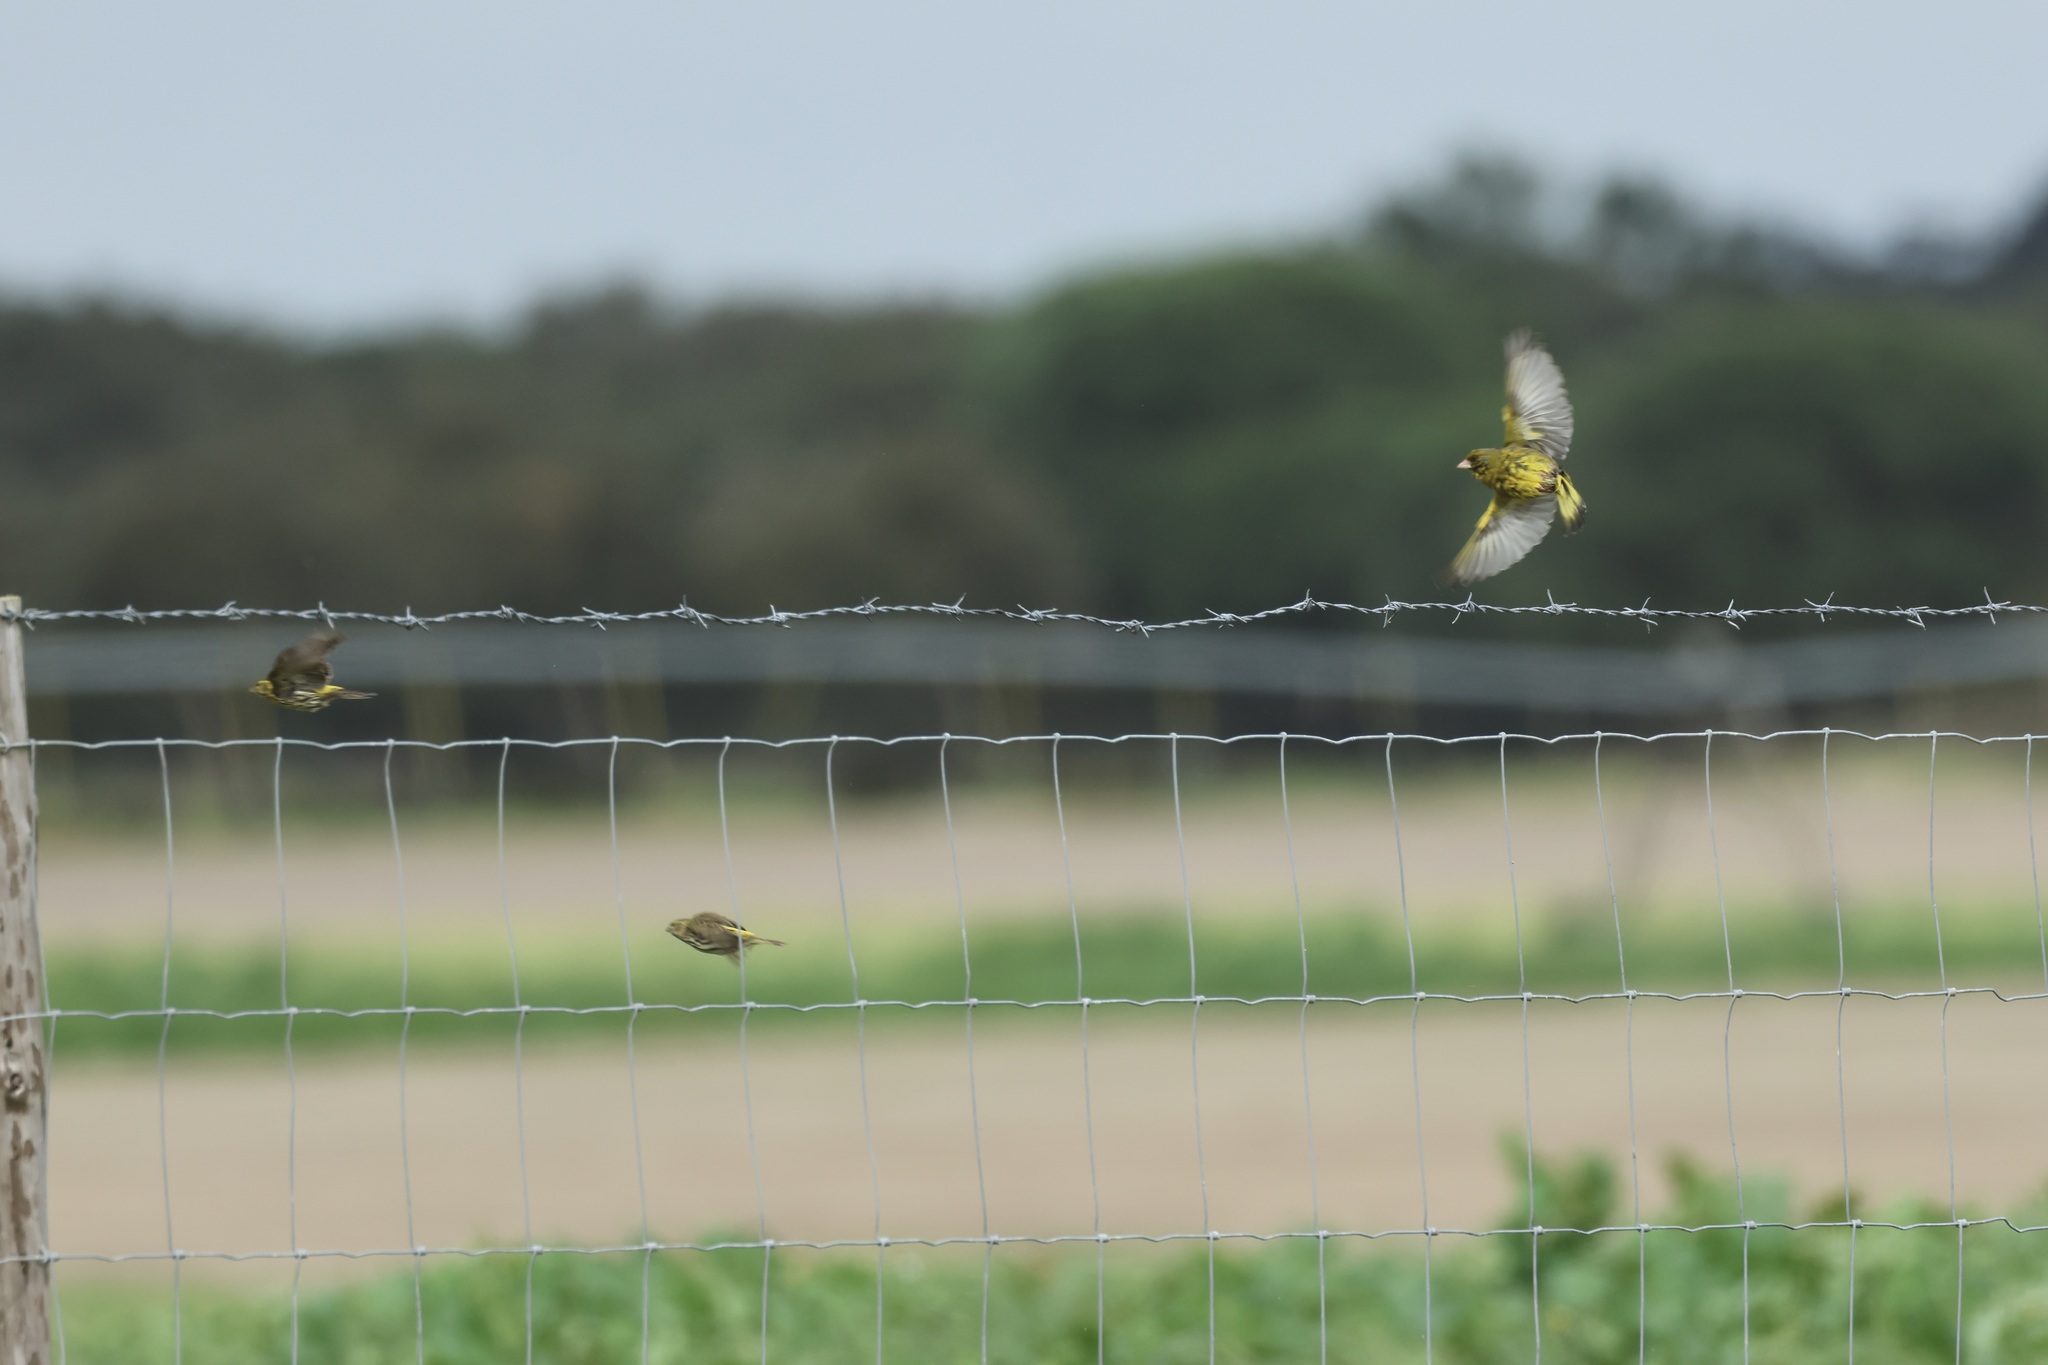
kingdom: Plantae
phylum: Tracheophyta
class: Liliopsida
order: Poales
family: Poaceae
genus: Chloris
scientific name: Chloris chloris
